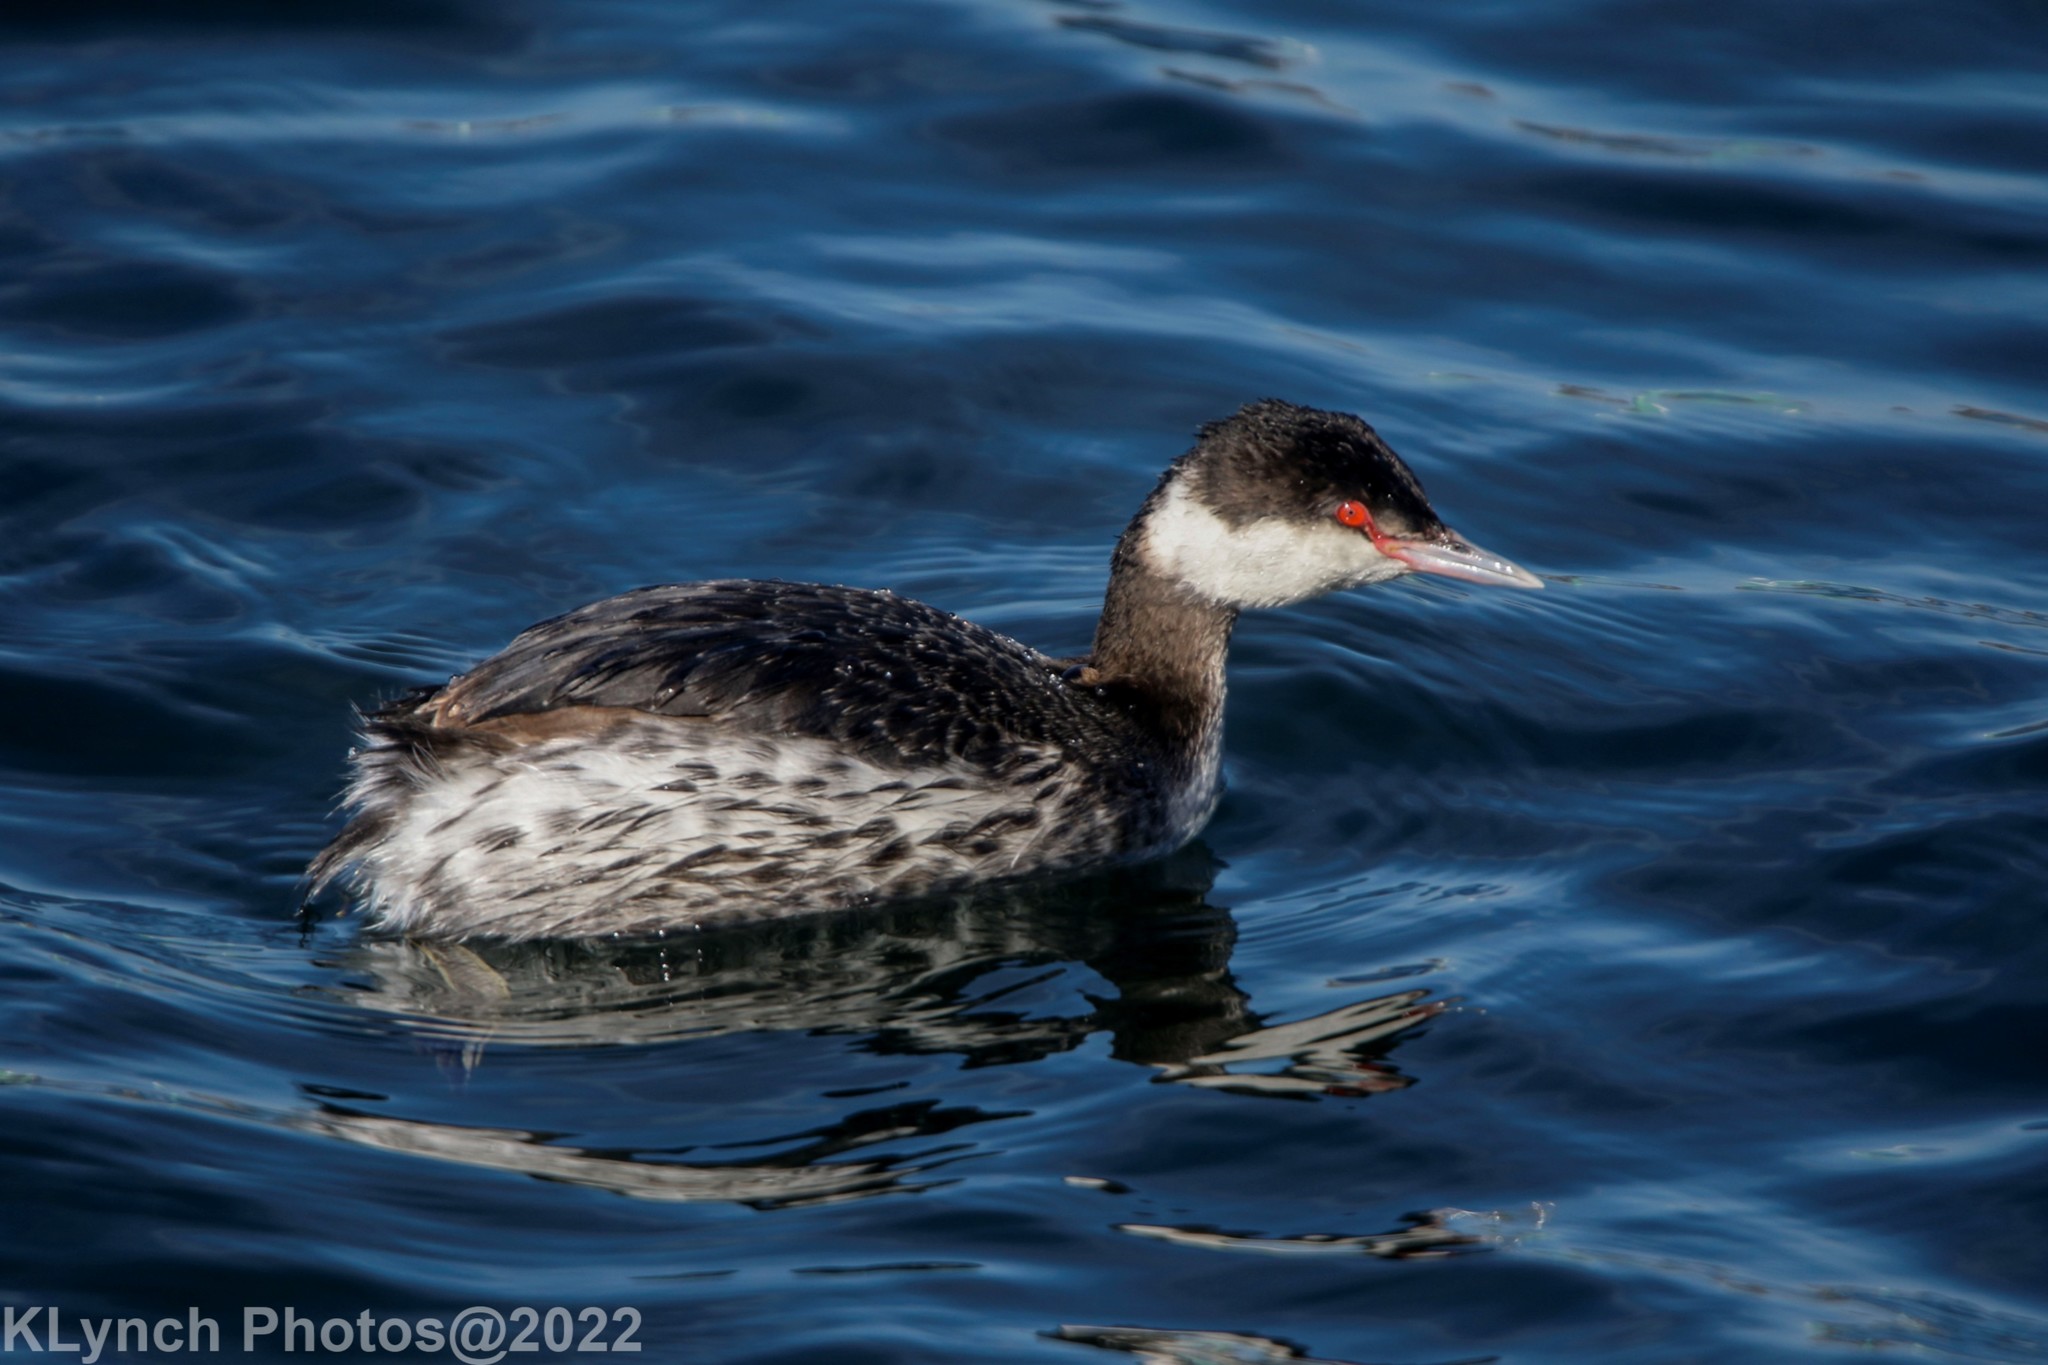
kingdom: Animalia
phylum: Chordata
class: Aves
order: Podicipediformes
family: Podicipedidae
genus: Podiceps
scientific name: Podiceps auritus
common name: Horned grebe
